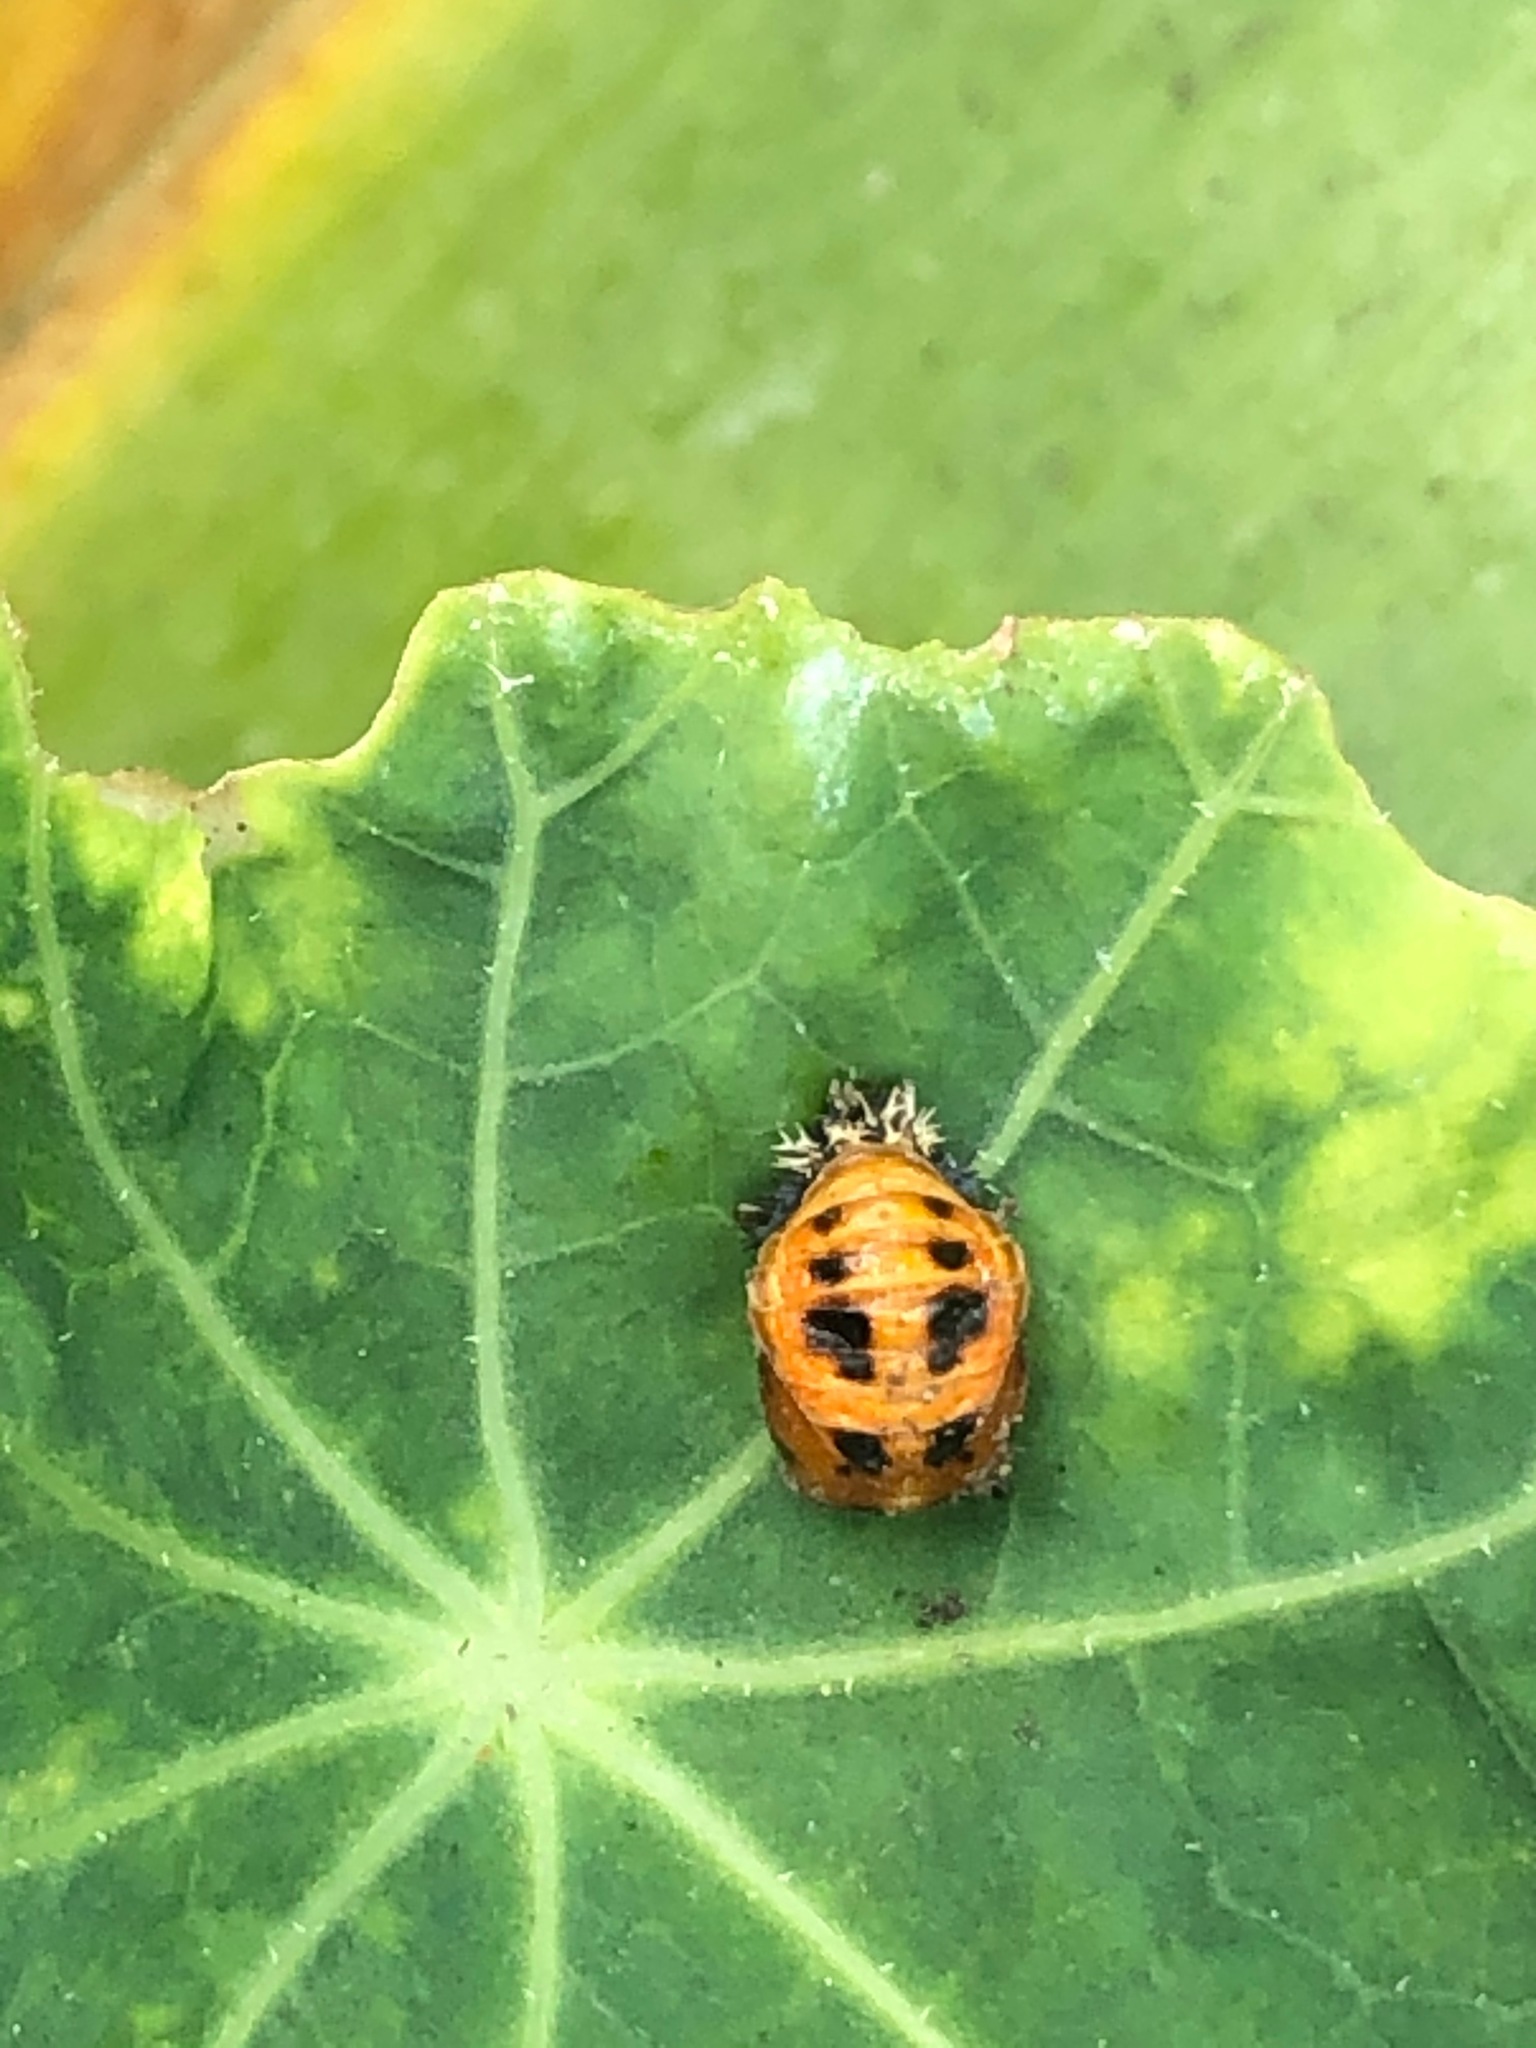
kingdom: Animalia
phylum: Arthropoda
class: Insecta
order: Coleoptera
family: Coccinellidae
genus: Harmonia
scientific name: Harmonia axyridis
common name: Harlequin ladybird
